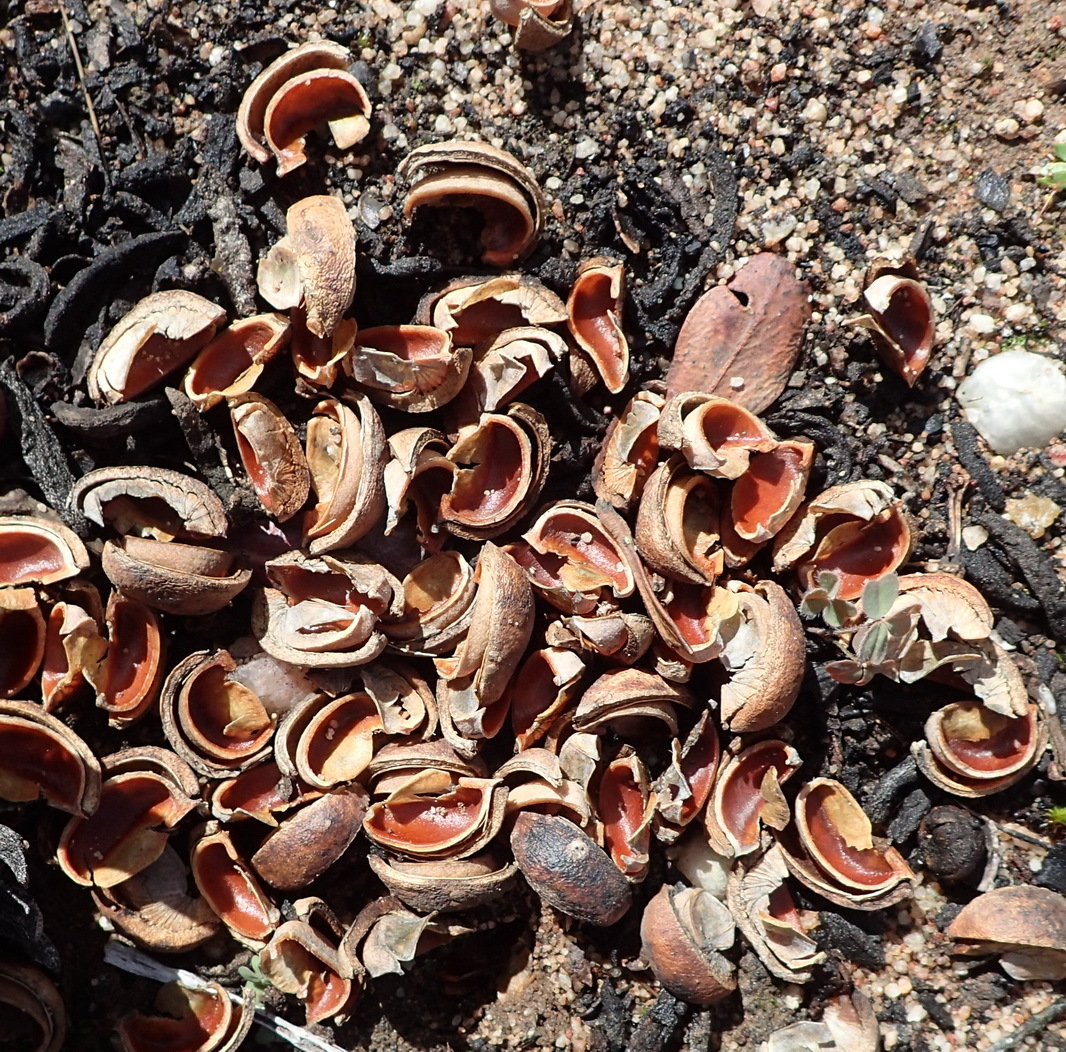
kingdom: Plantae
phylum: Tracheophyta
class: Magnoliopsida
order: Malpighiales
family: Picrodendraceae
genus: Hyaenanche
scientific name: Hyaenanche globosa
